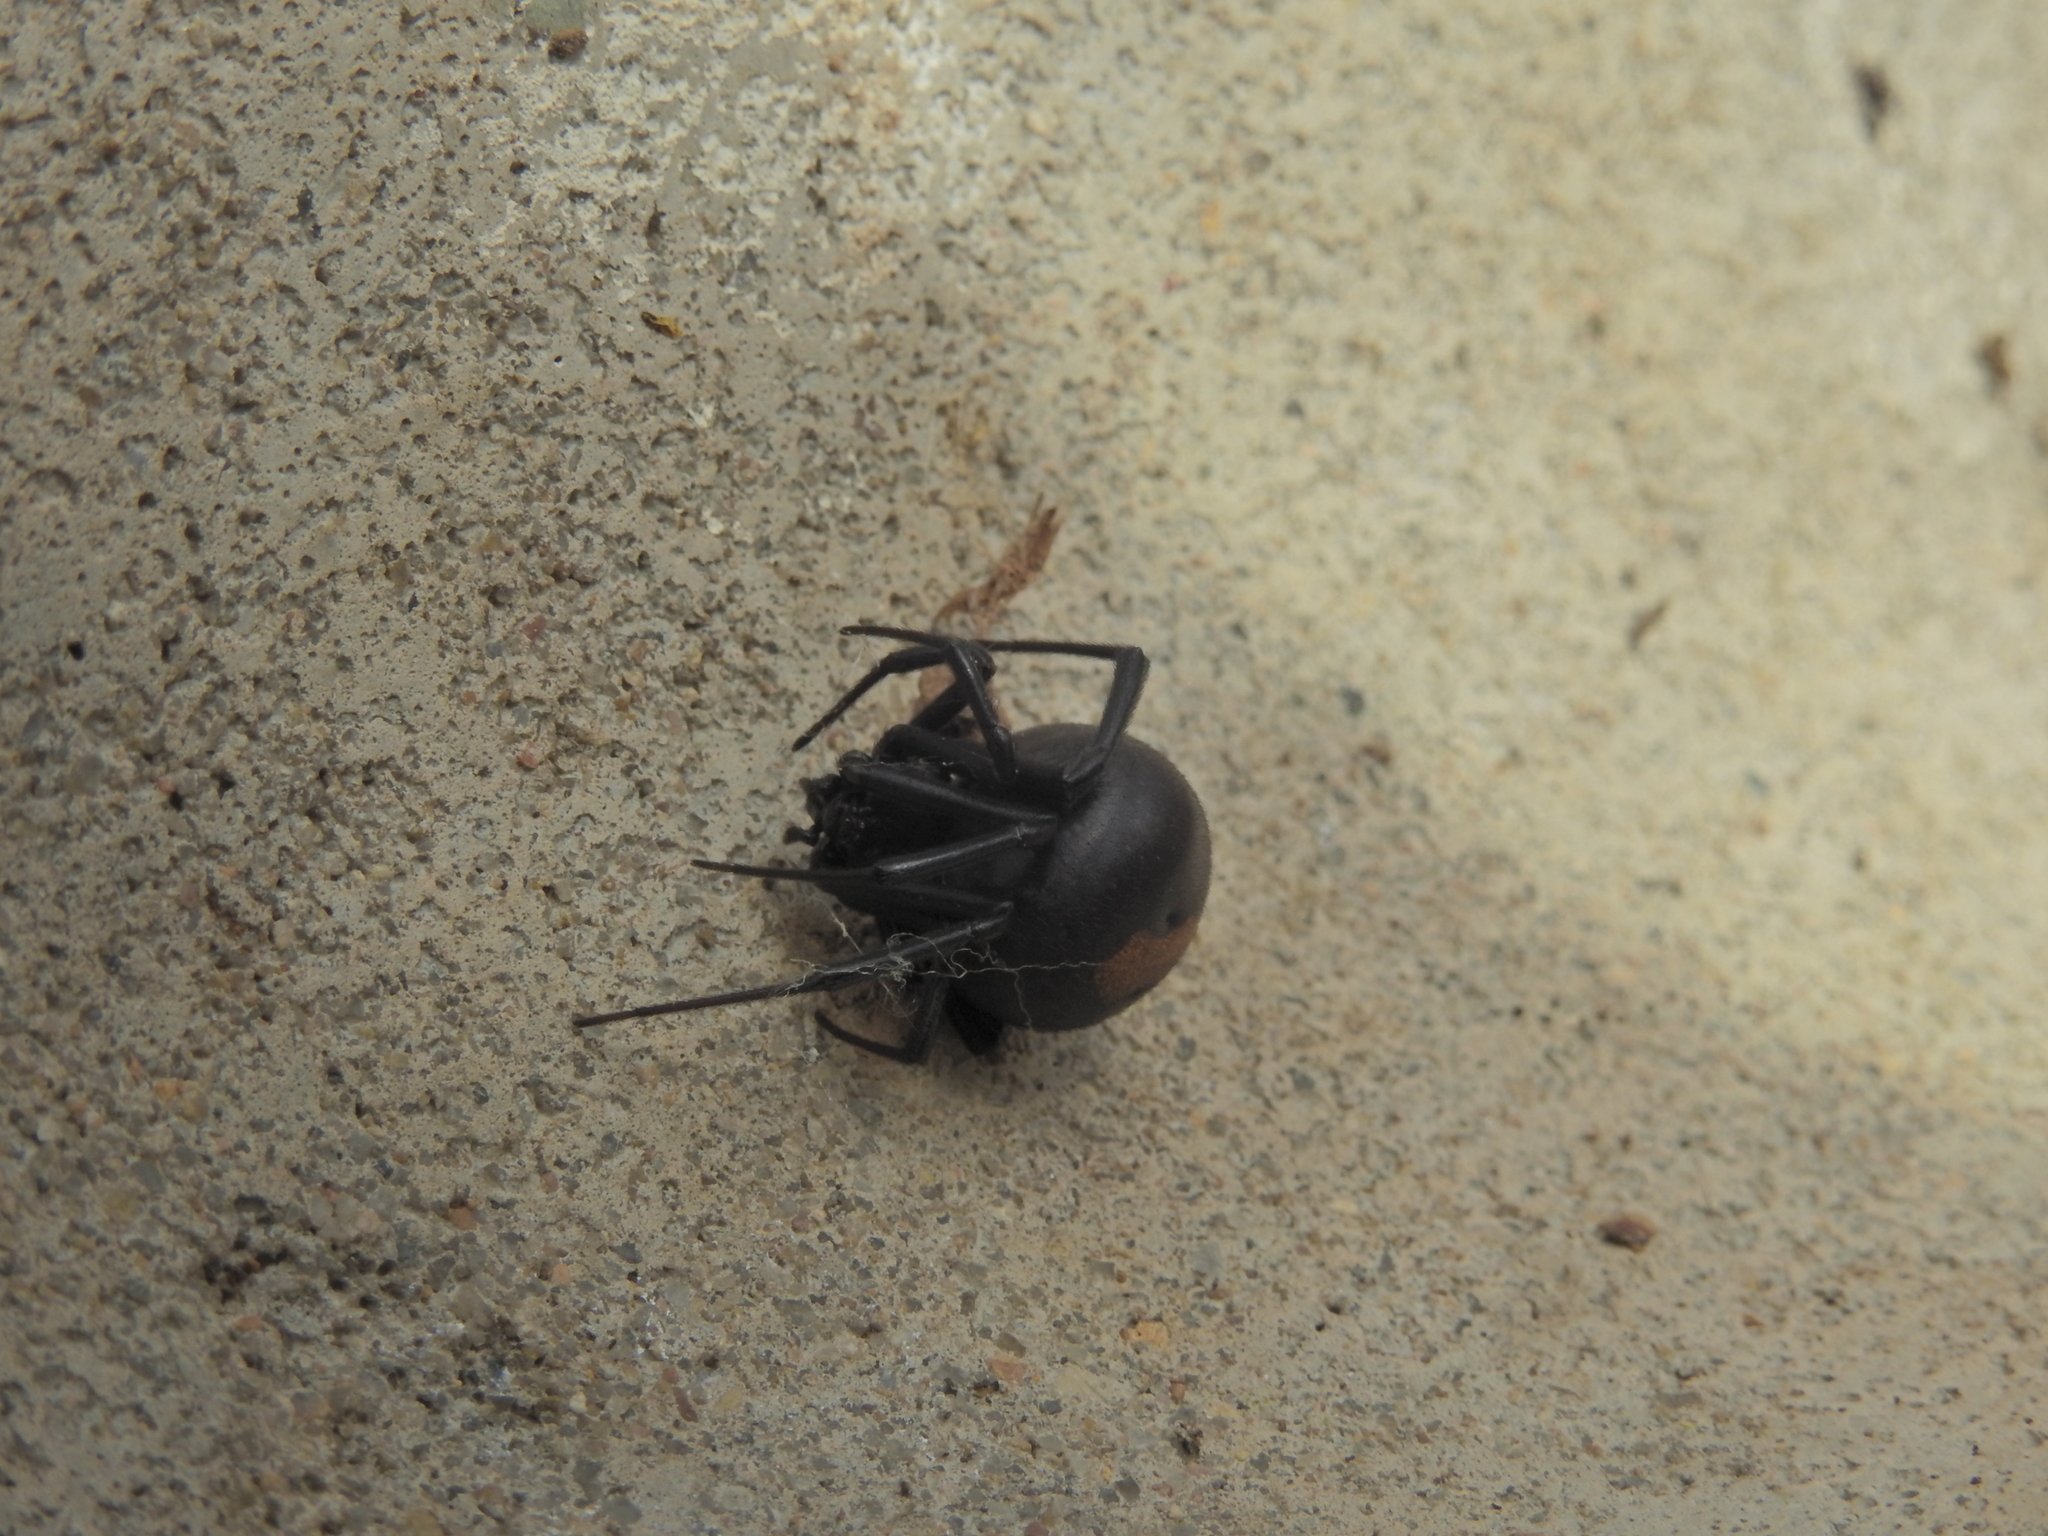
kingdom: Animalia
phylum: Arthropoda
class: Arachnida
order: Araneae
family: Theridiidae
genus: Latrodectus
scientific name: Latrodectus hasselti
